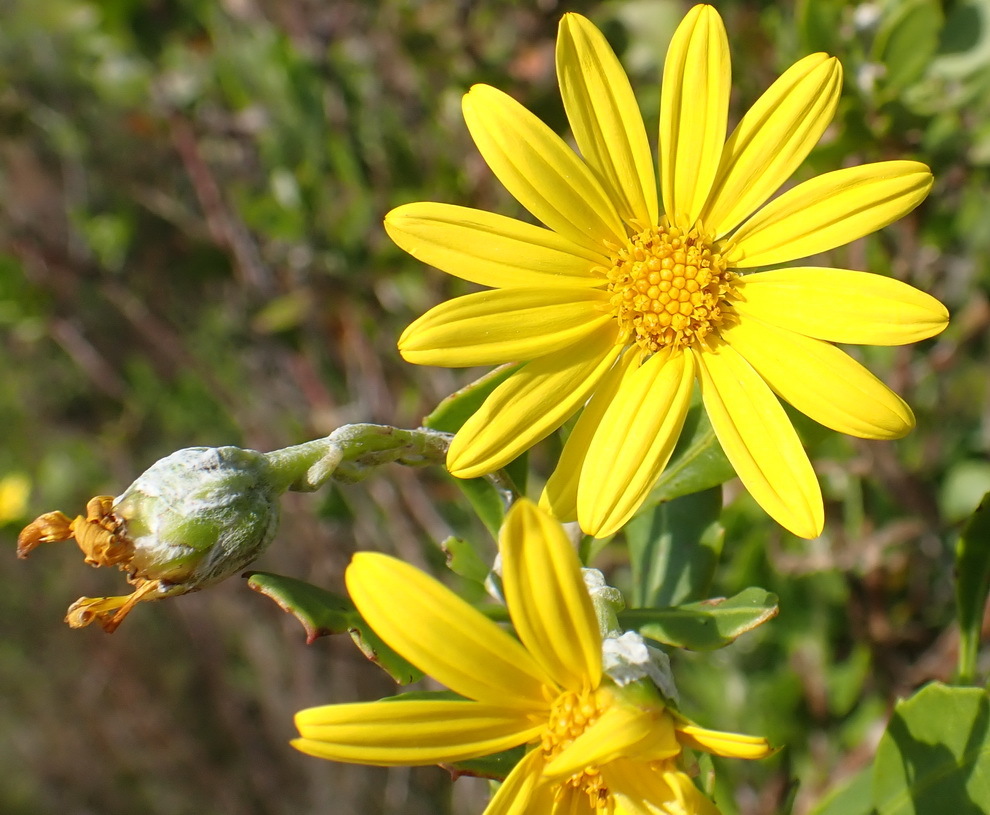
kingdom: Plantae
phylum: Tracheophyta
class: Magnoliopsida
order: Asterales
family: Asteraceae
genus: Osteospermum
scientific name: Osteospermum moniliferum
